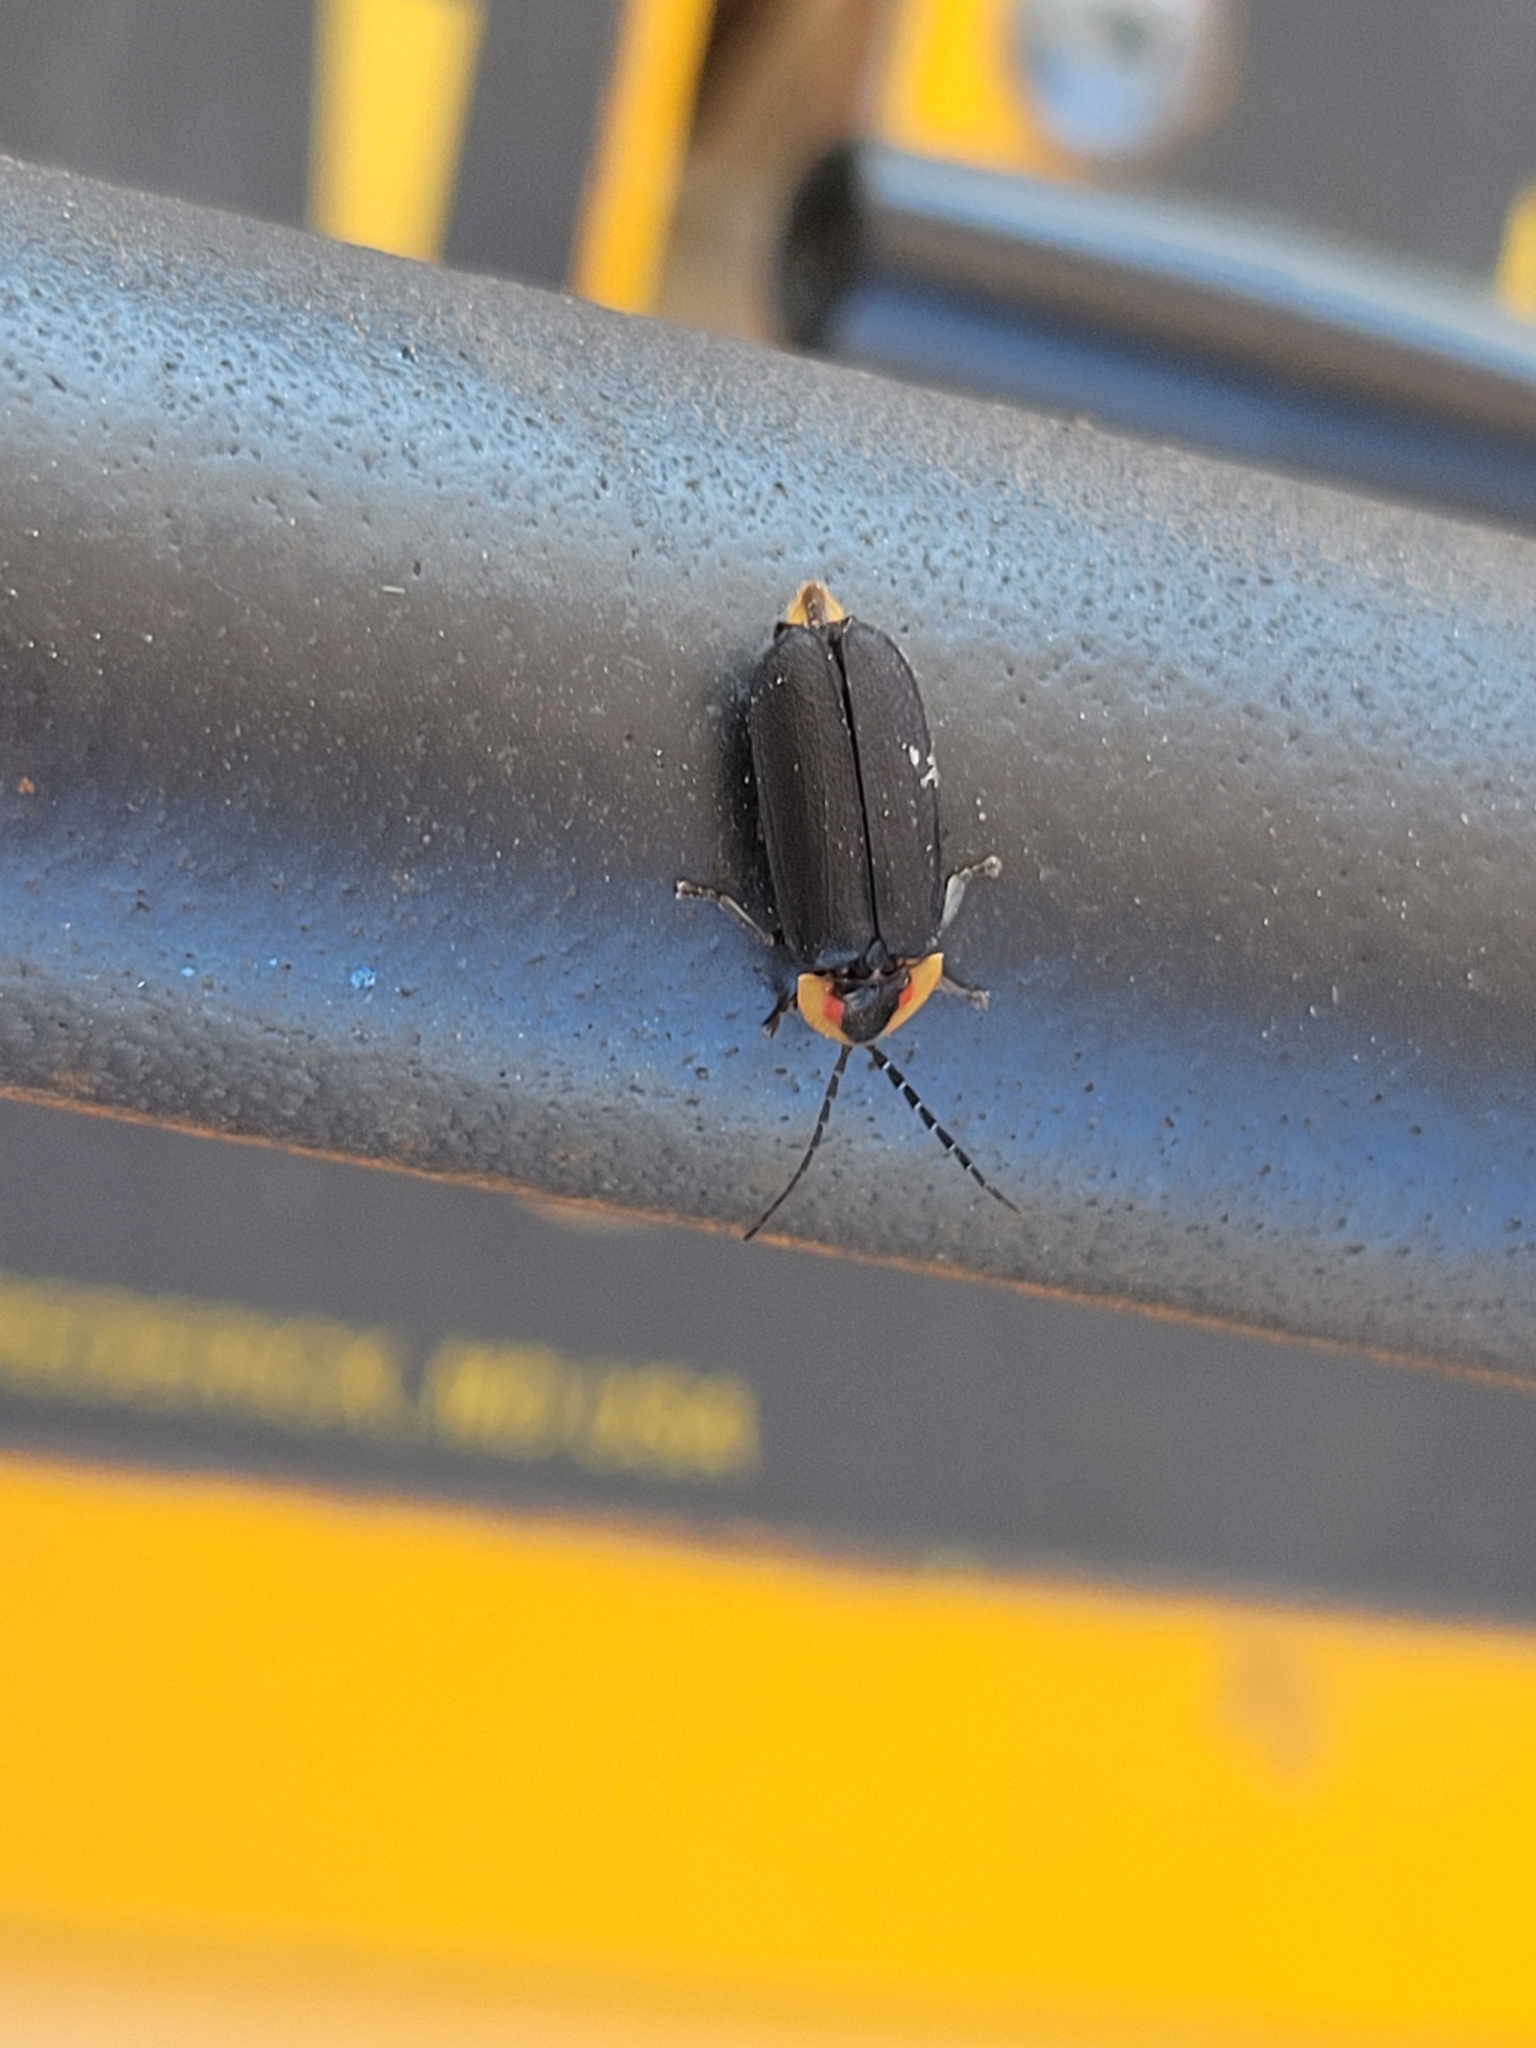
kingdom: Animalia
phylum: Arthropoda
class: Insecta
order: Coleoptera
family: Lampyridae
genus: Lucidota
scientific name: Lucidota atra
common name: Black firefly
